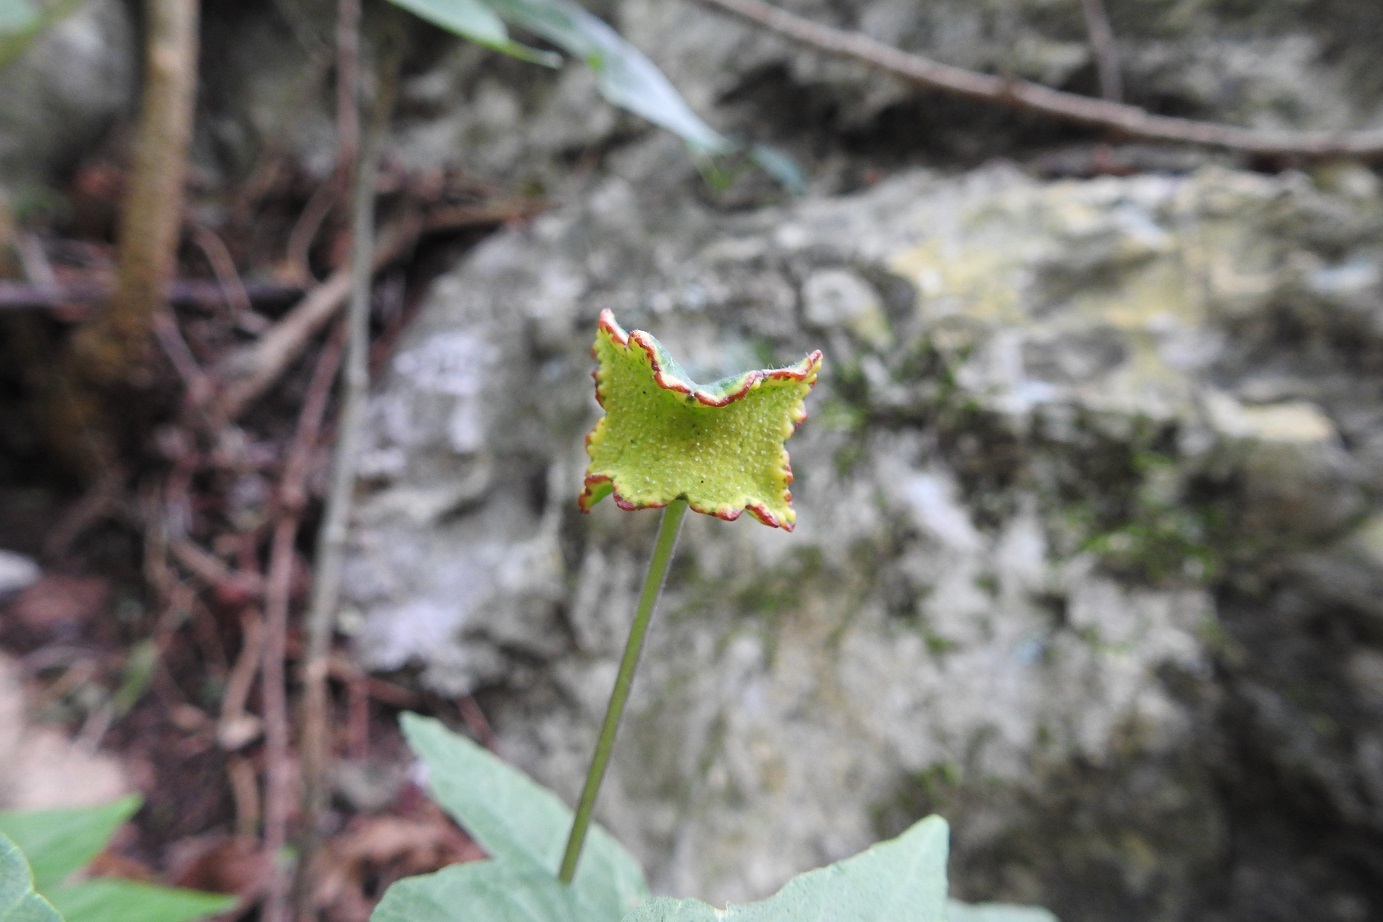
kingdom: Plantae
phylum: Tracheophyta
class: Magnoliopsida
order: Rosales
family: Moraceae
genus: Dorstenia
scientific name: Dorstenia contrajerva
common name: Tusilla
